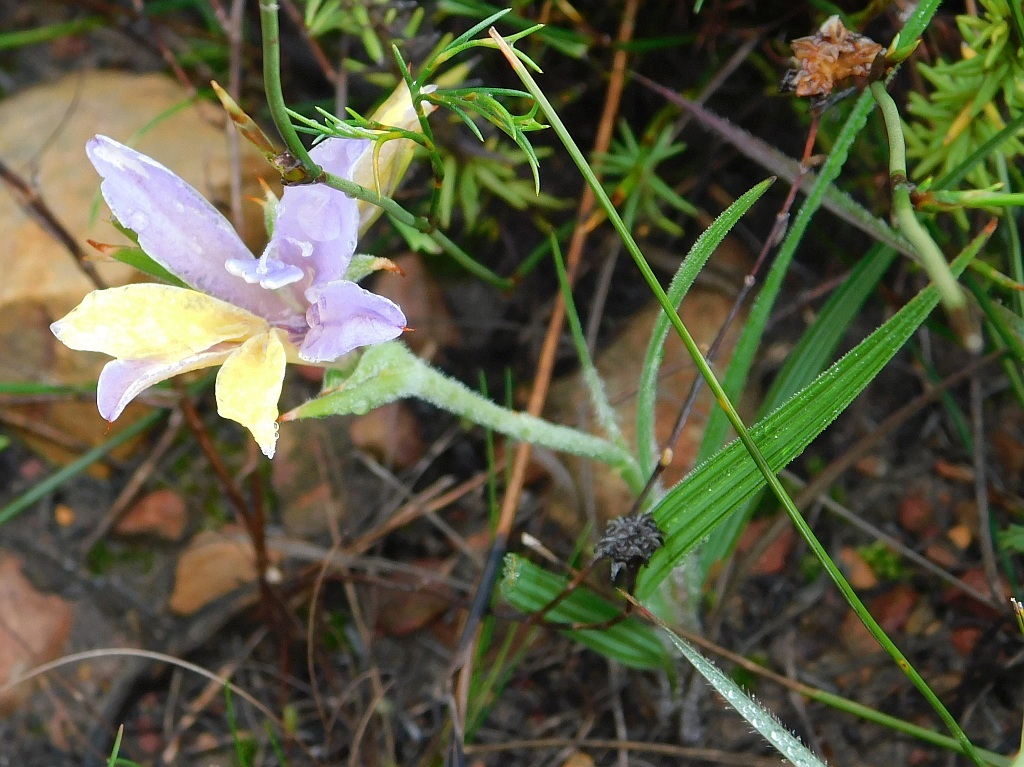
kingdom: Plantae
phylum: Tracheophyta
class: Liliopsida
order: Asparagales
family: Iridaceae
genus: Babiana
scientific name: Babiana patula
